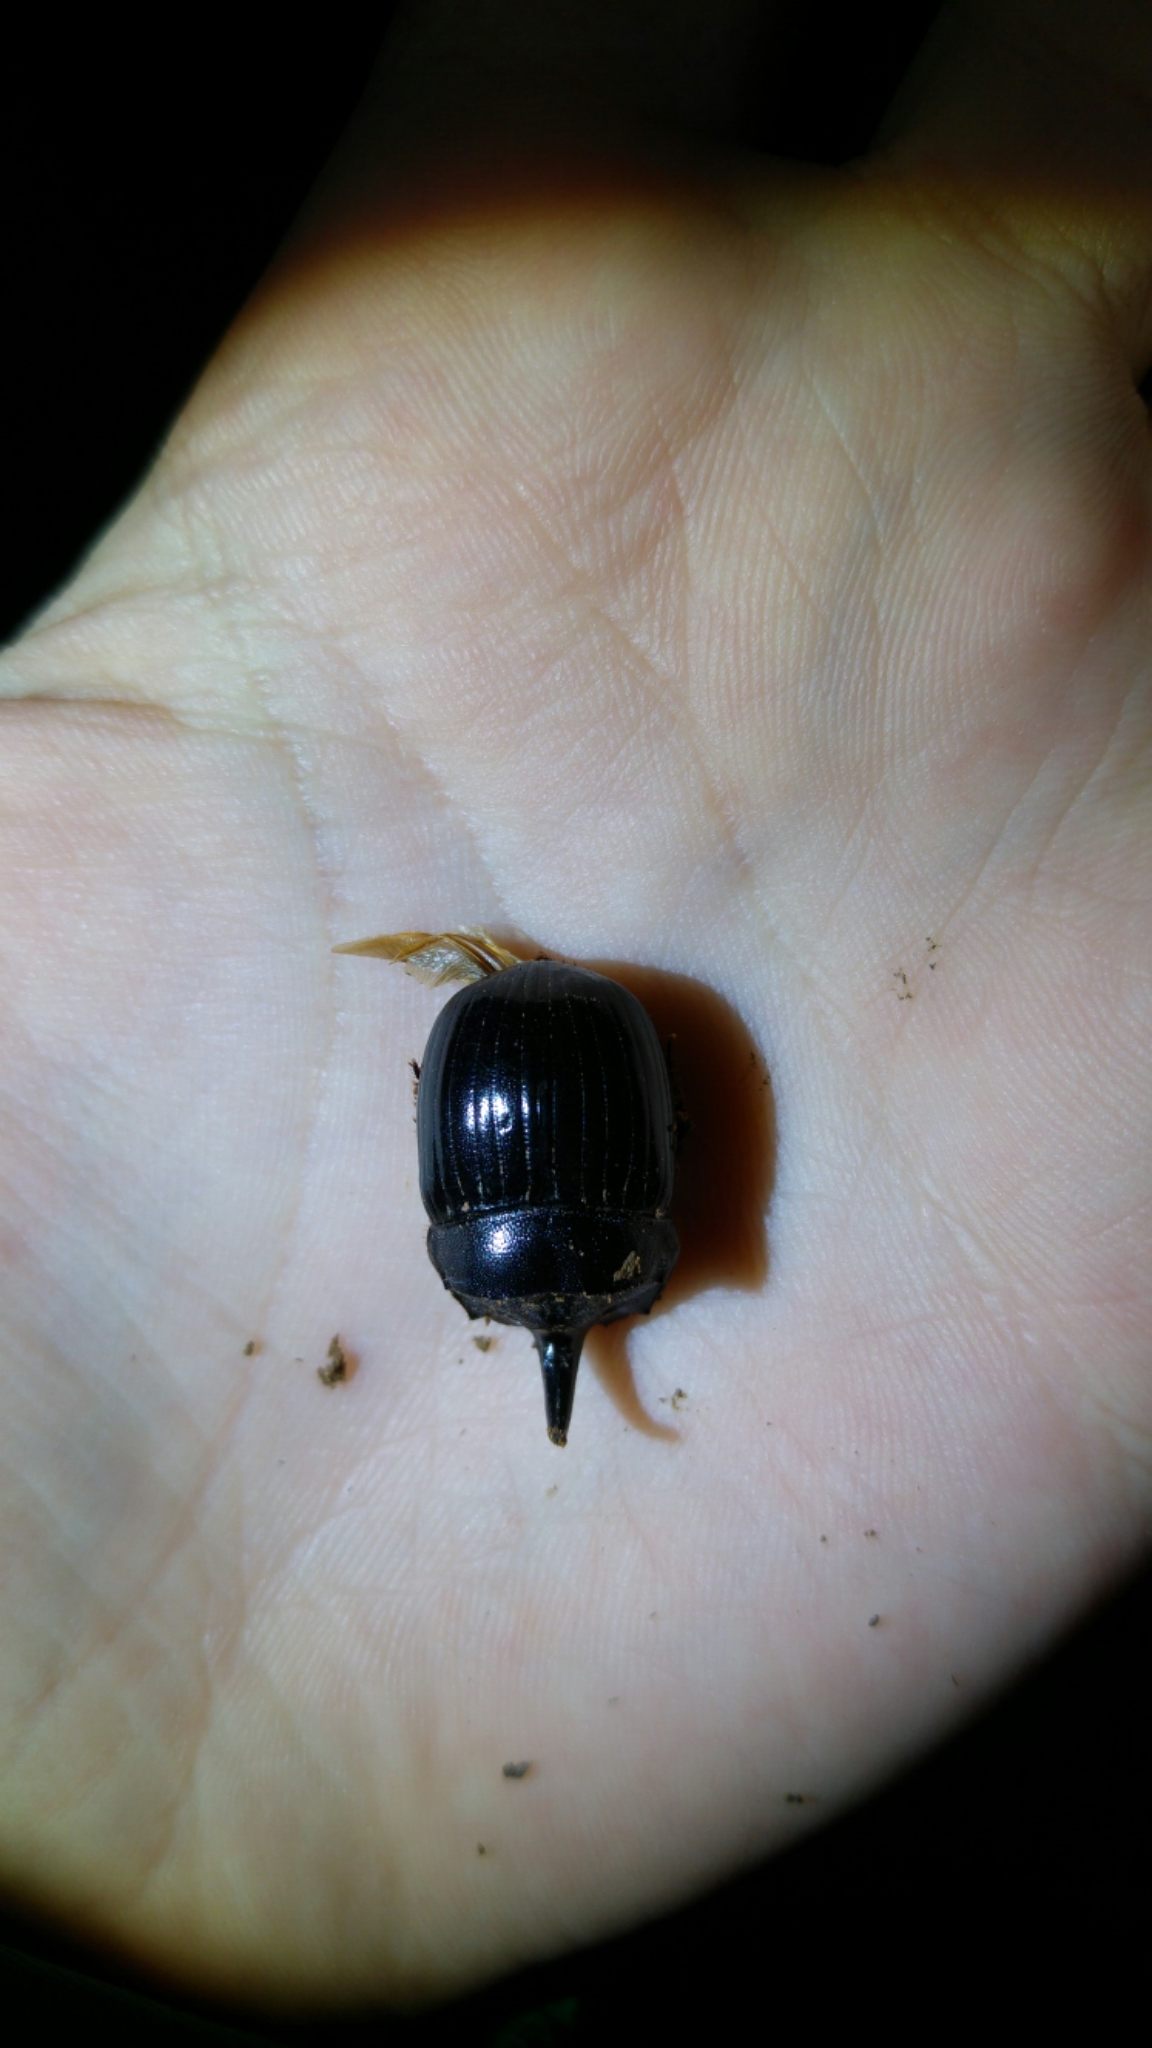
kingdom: Animalia
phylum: Arthropoda
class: Insecta
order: Coleoptera
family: Scarabaeidae
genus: Copris
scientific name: Copris hispanus
